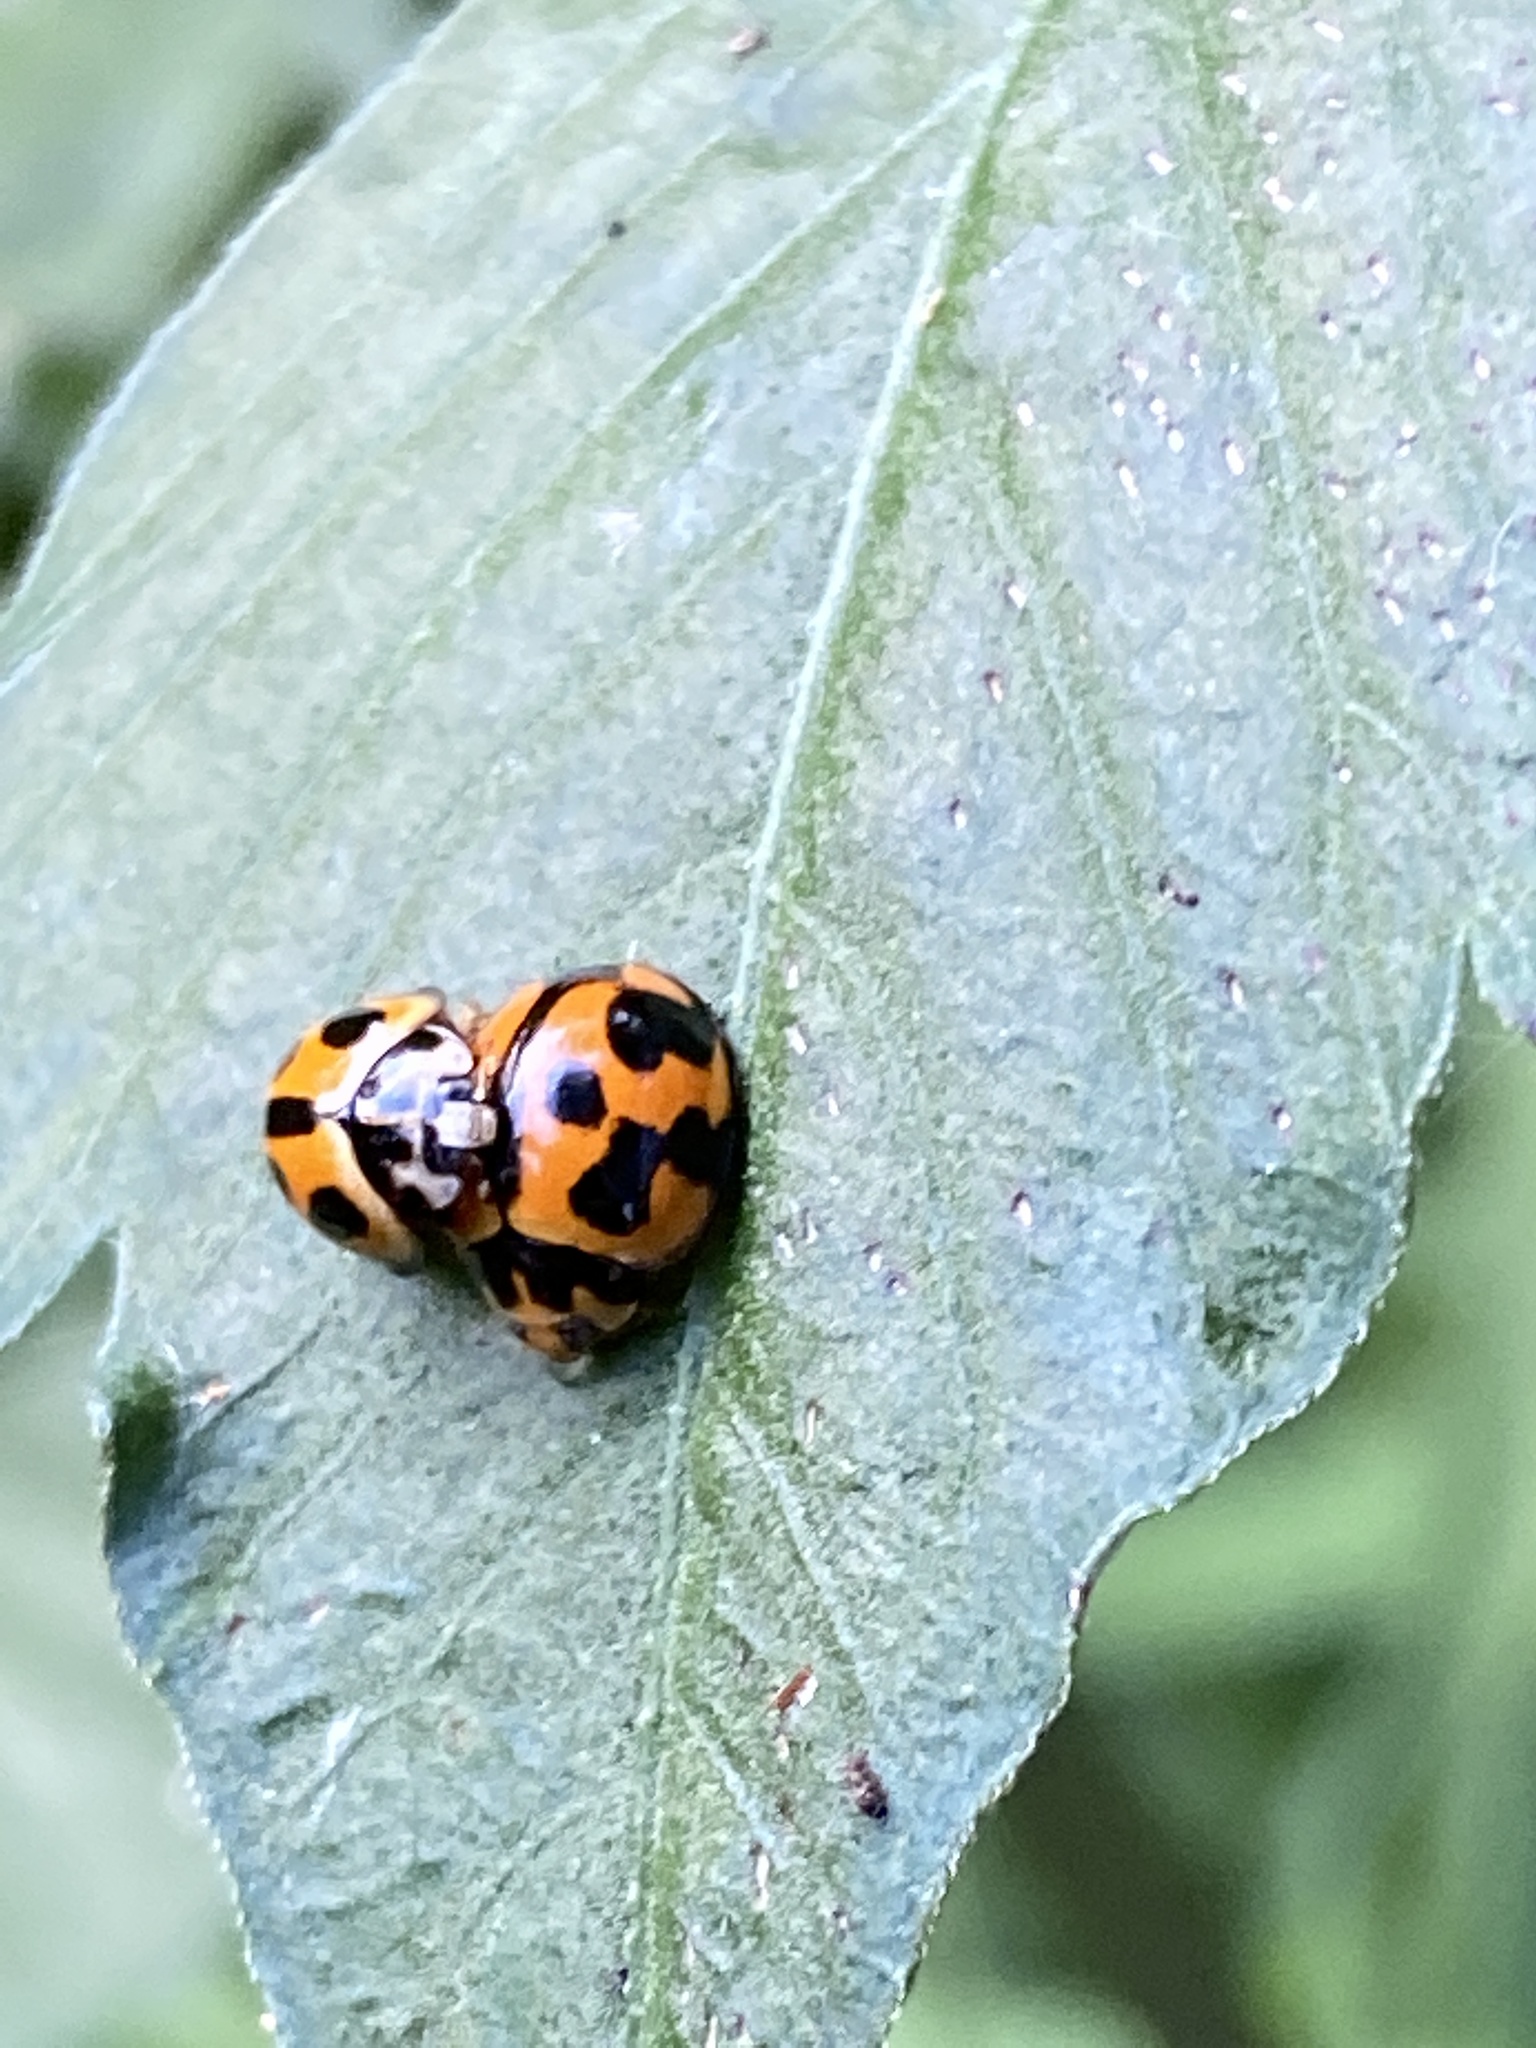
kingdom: Animalia
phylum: Arthropoda
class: Insecta
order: Coleoptera
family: Coccinellidae
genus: Coelophora
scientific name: Coelophora inaequalis
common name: Common australian lady beetle
